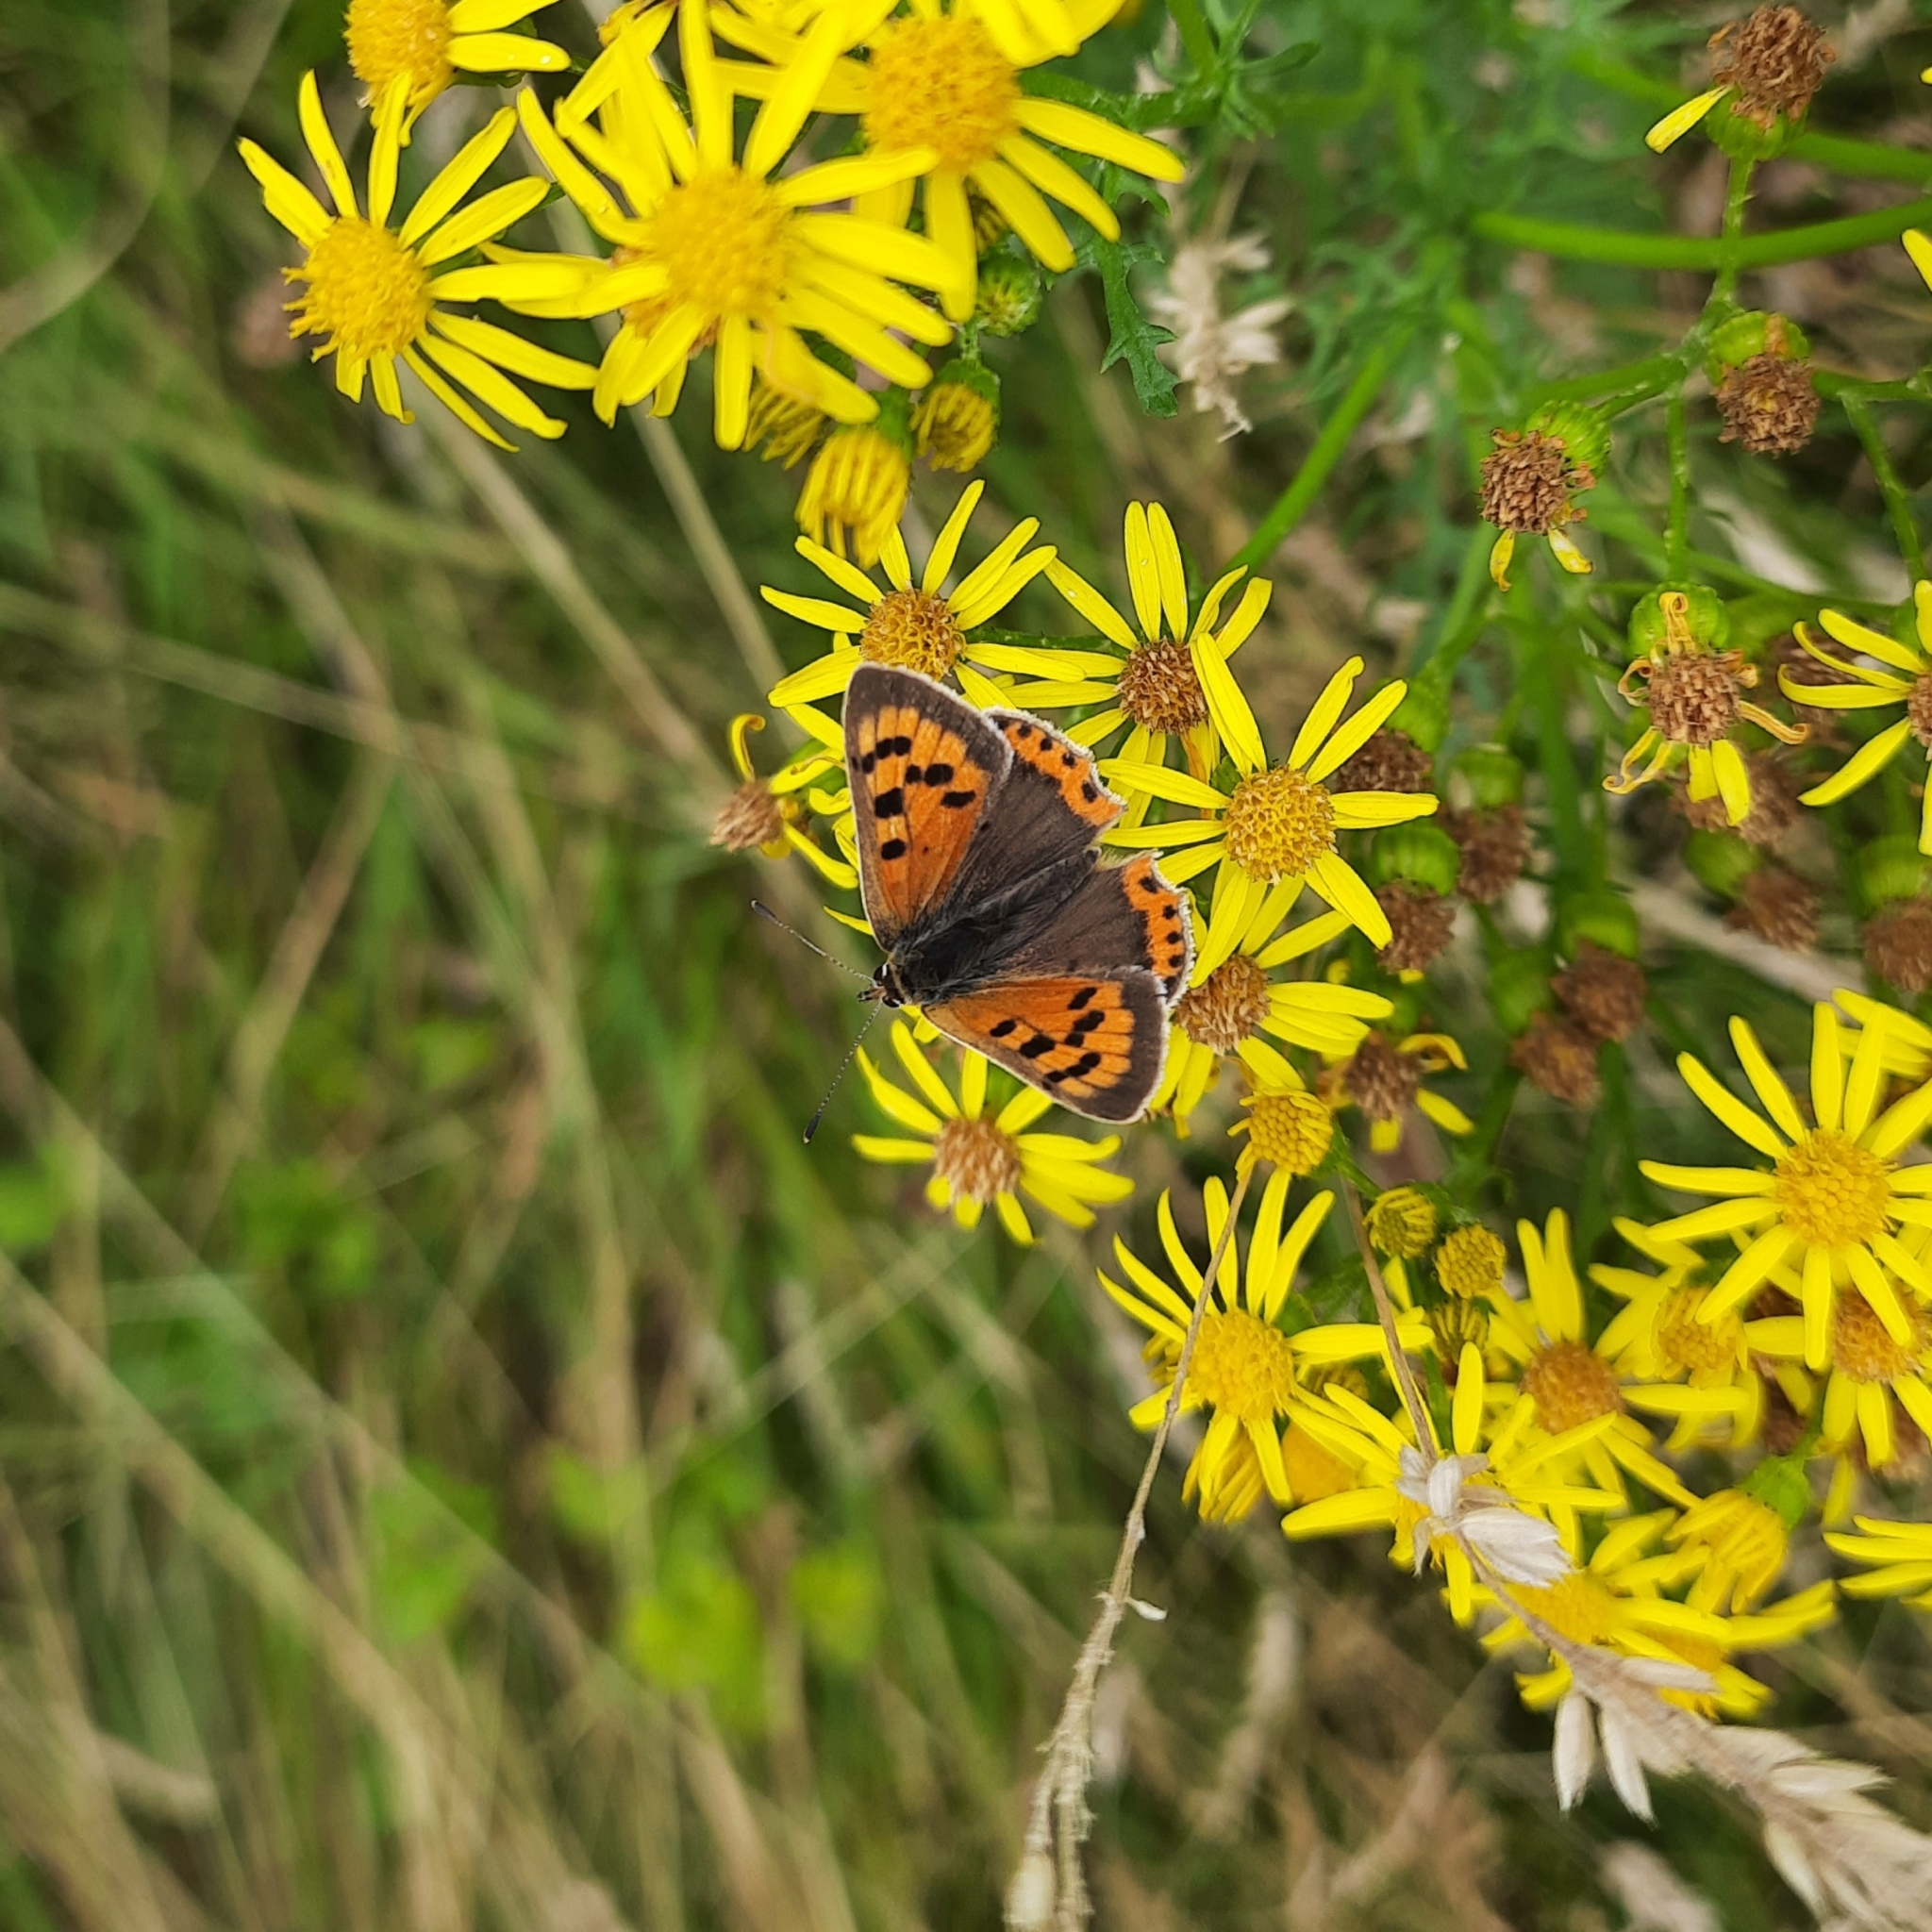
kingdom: Animalia
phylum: Arthropoda
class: Insecta
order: Lepidoptera
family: Lycaenidae
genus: Lycaena
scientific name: Lycaena phlaeas
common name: Small copper
